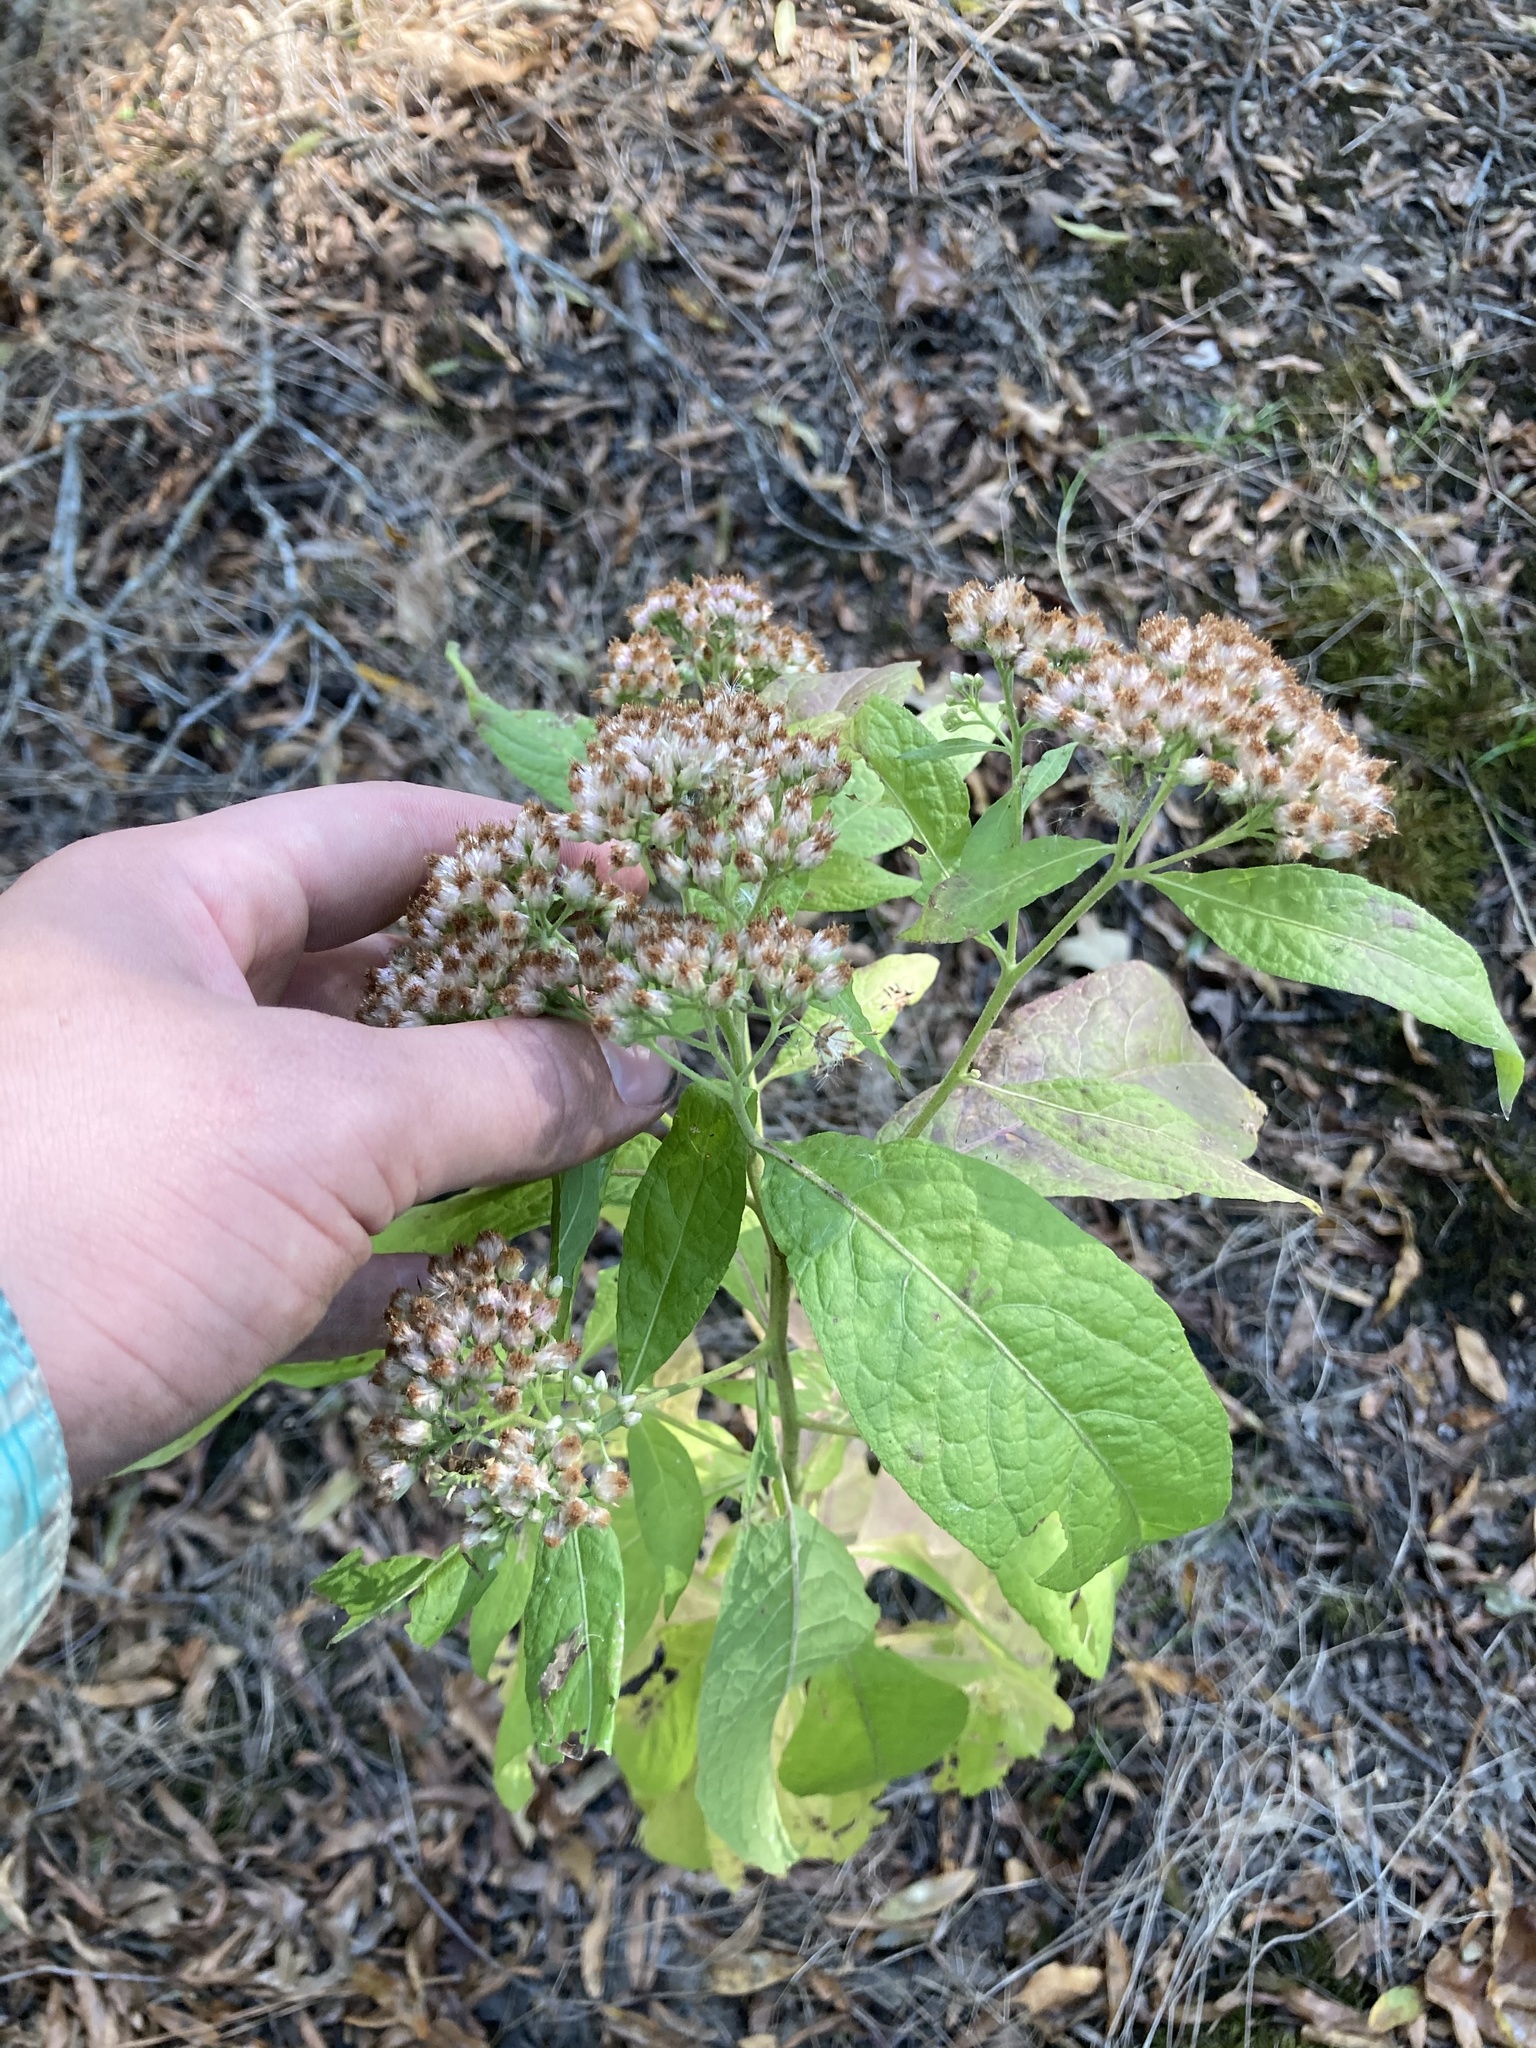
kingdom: Plantae
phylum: Tracheophyta
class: Magnoliopsida
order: Asterales
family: Asteraceae
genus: Pluchea
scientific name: Pluchea camphorata
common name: Camphor pluchea
